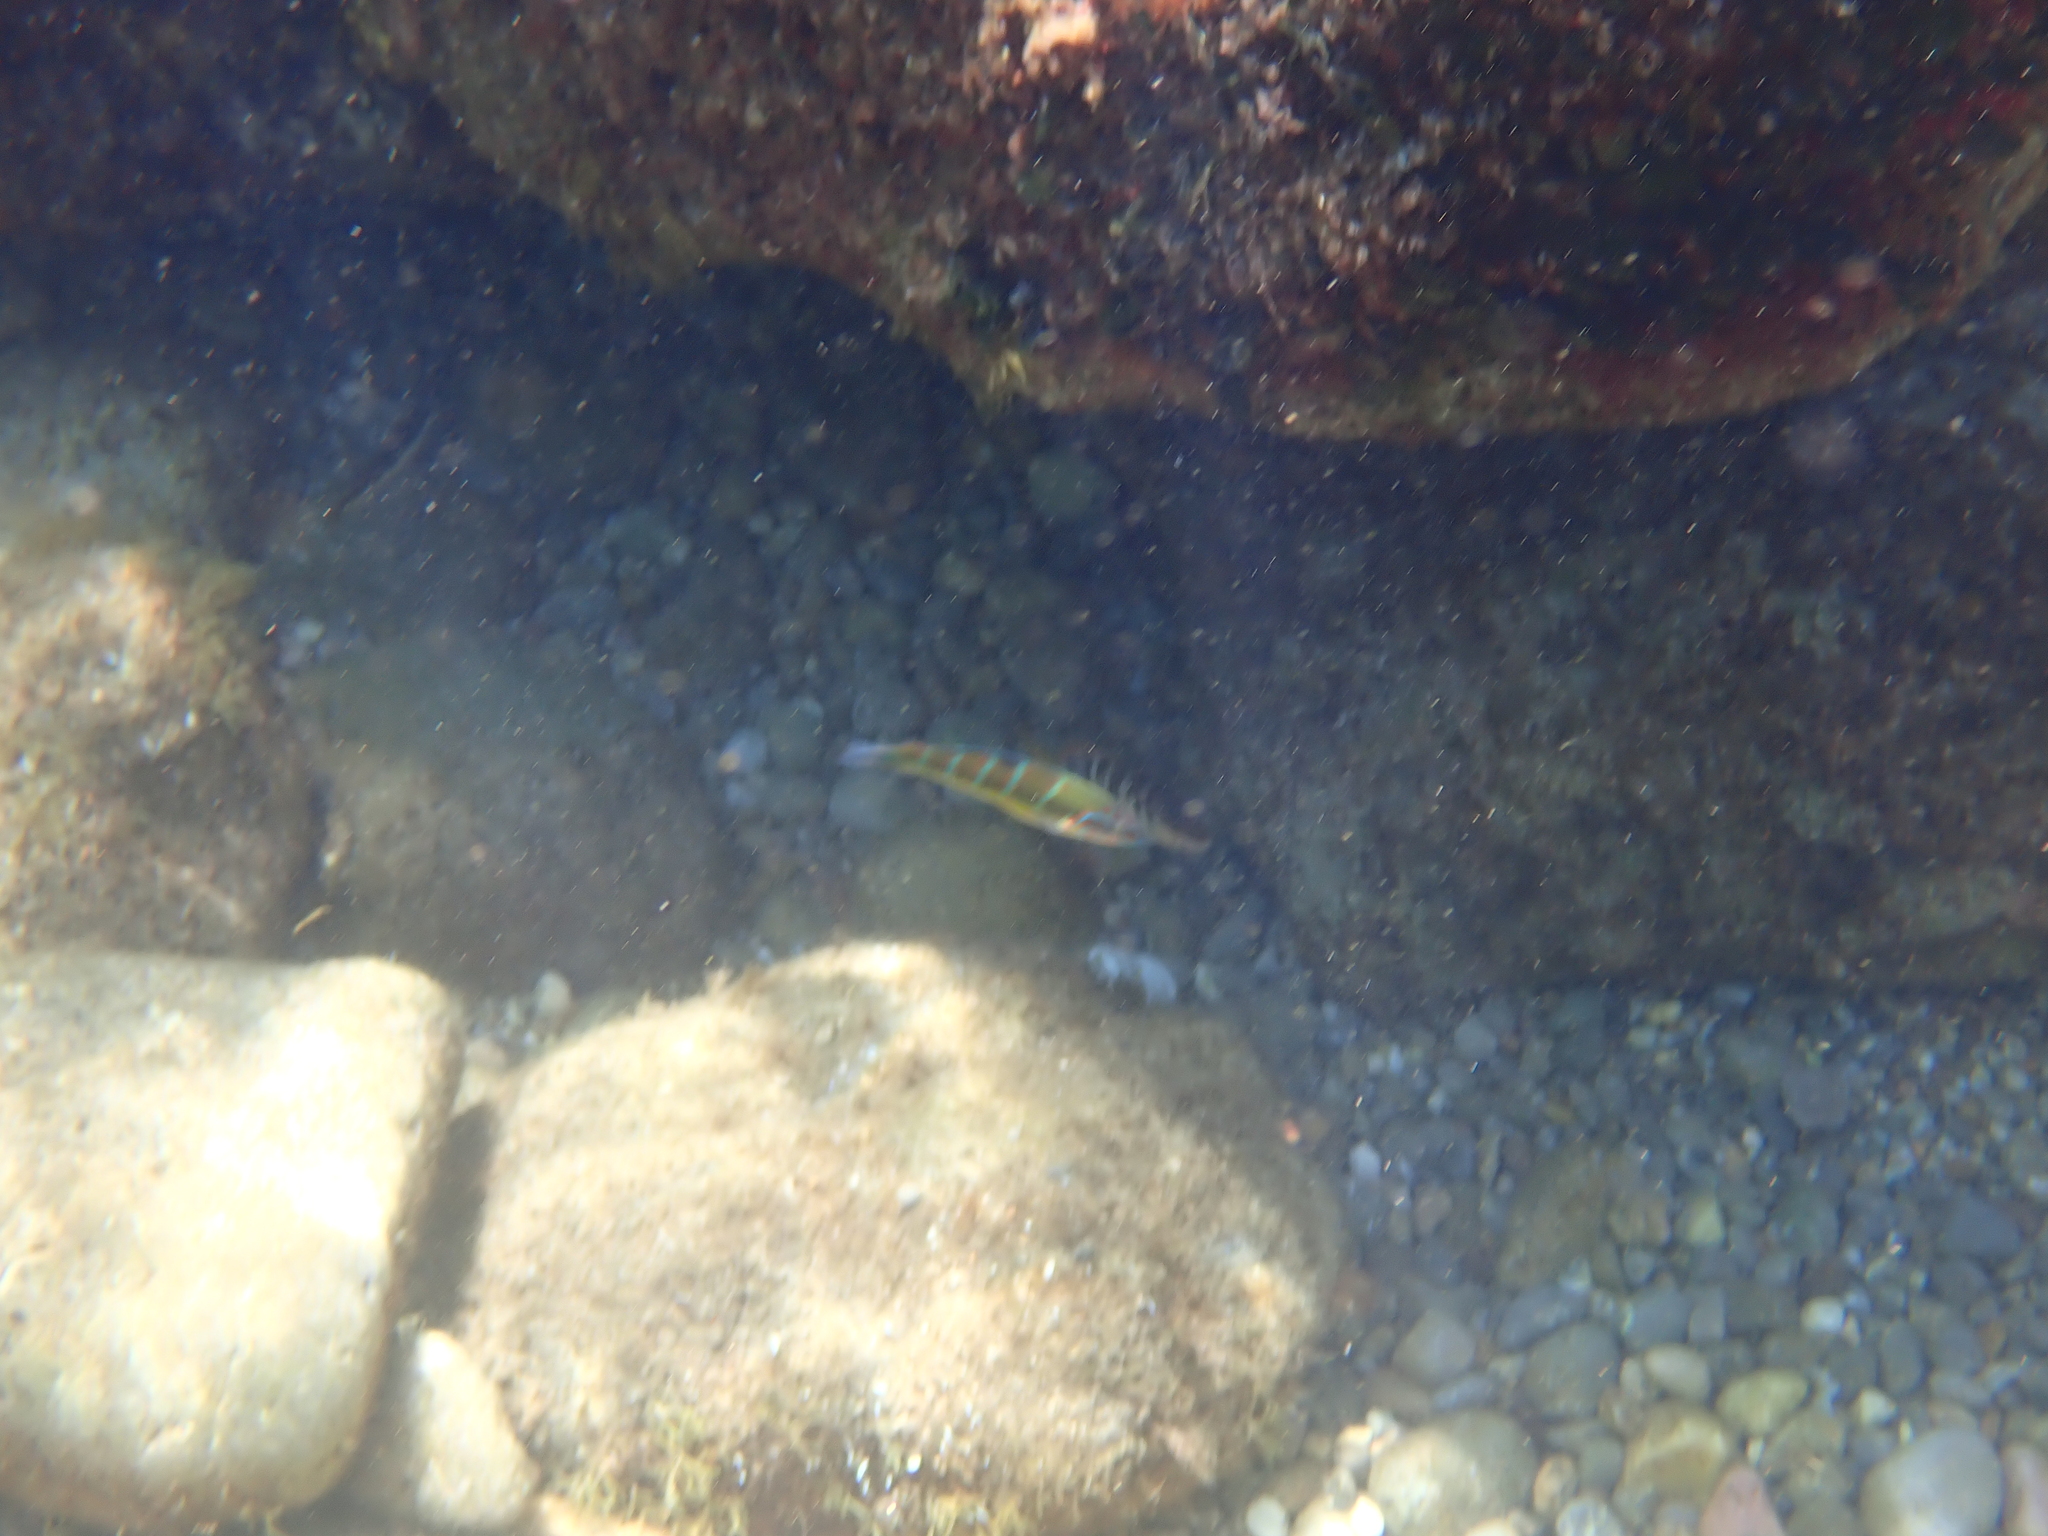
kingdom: Animalia
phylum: Chordata
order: Perciformes
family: Labridae
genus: Thalassoma
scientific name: Thalassoma pavo
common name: Ornate wrasse
